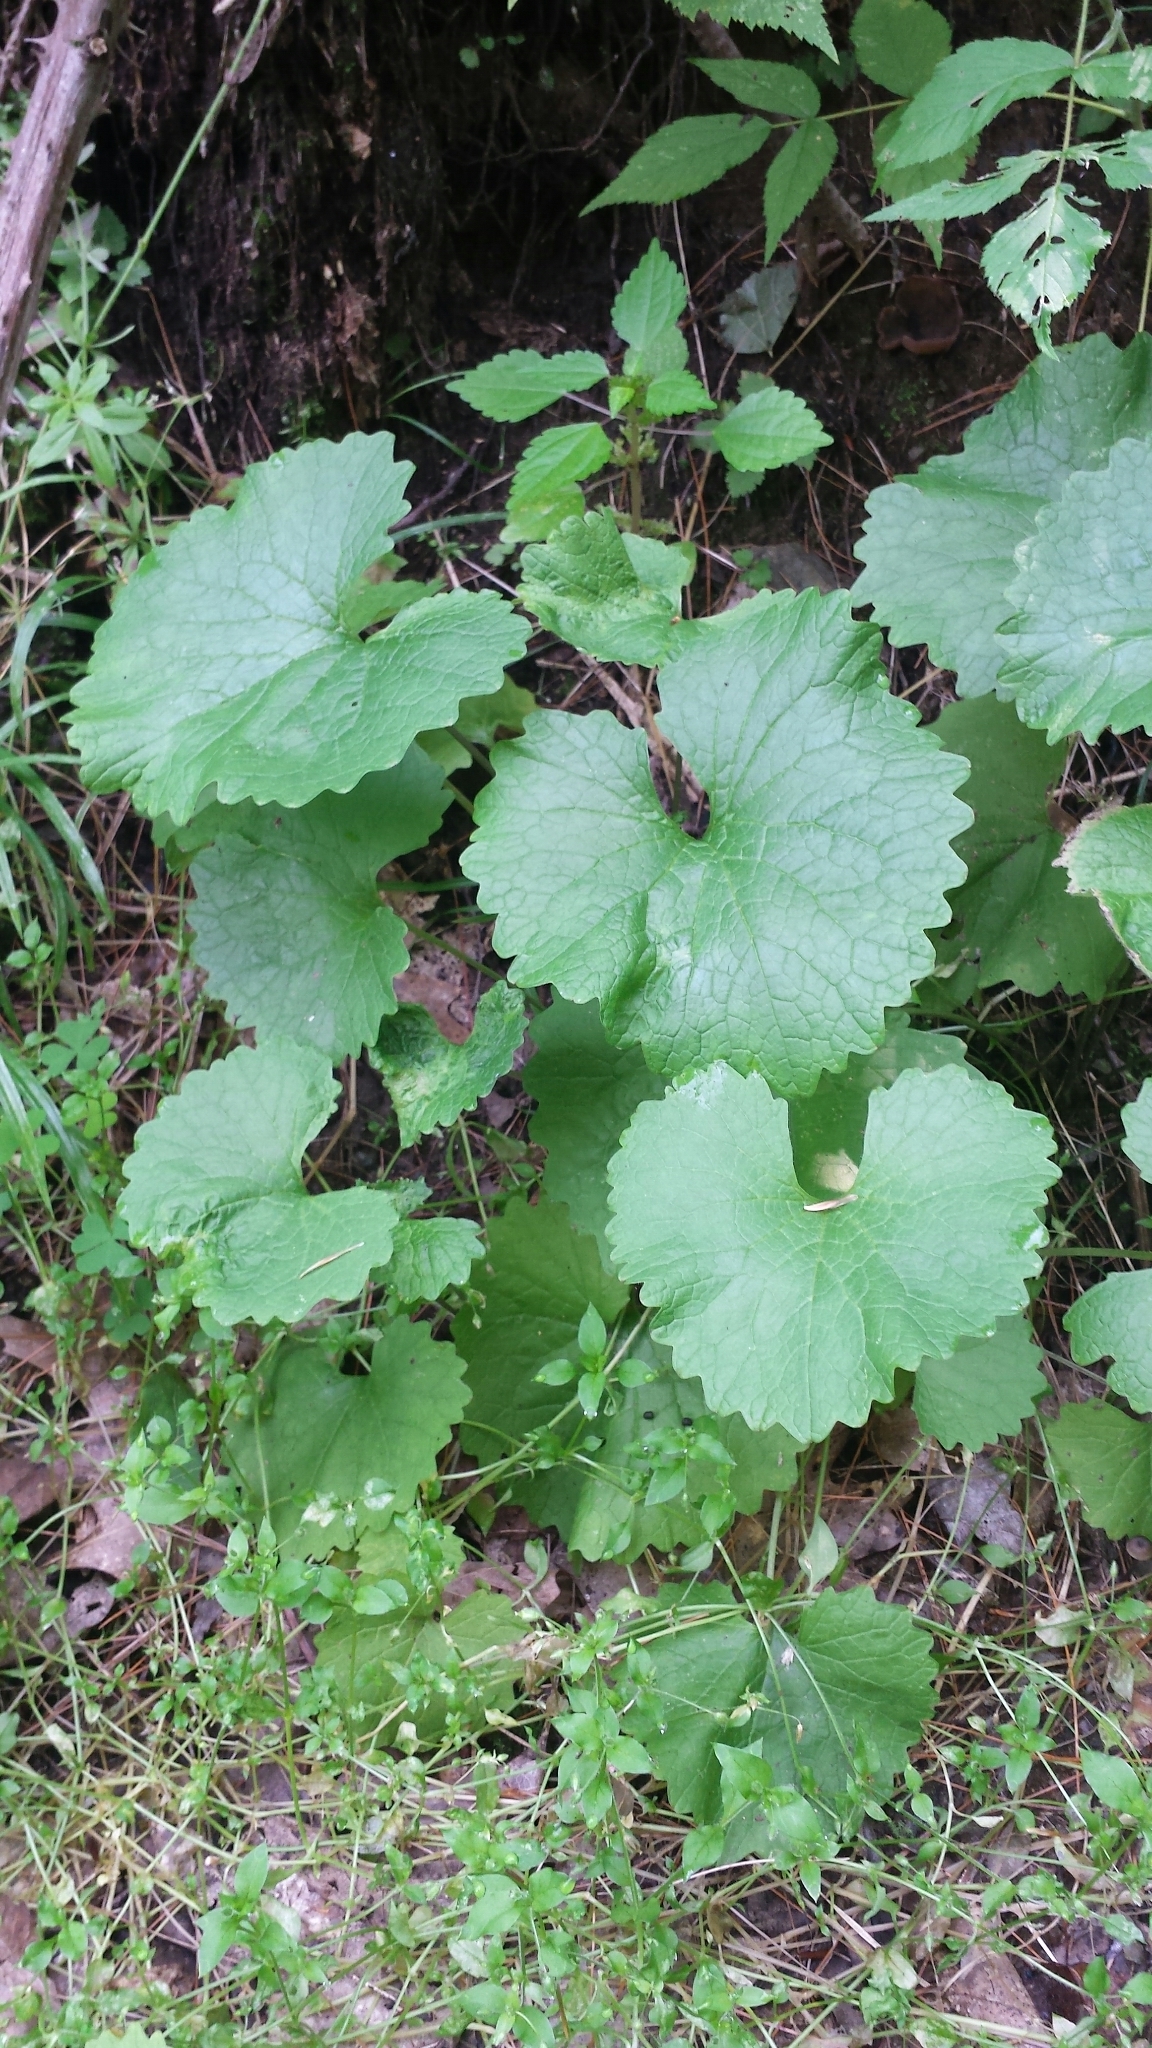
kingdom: Plantae
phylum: Tracheophyta
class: Magnoliopsida
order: Brassicales
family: Brassicaceae
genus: Alliaria
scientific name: Alliaria petiolata
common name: Garlic mustard
